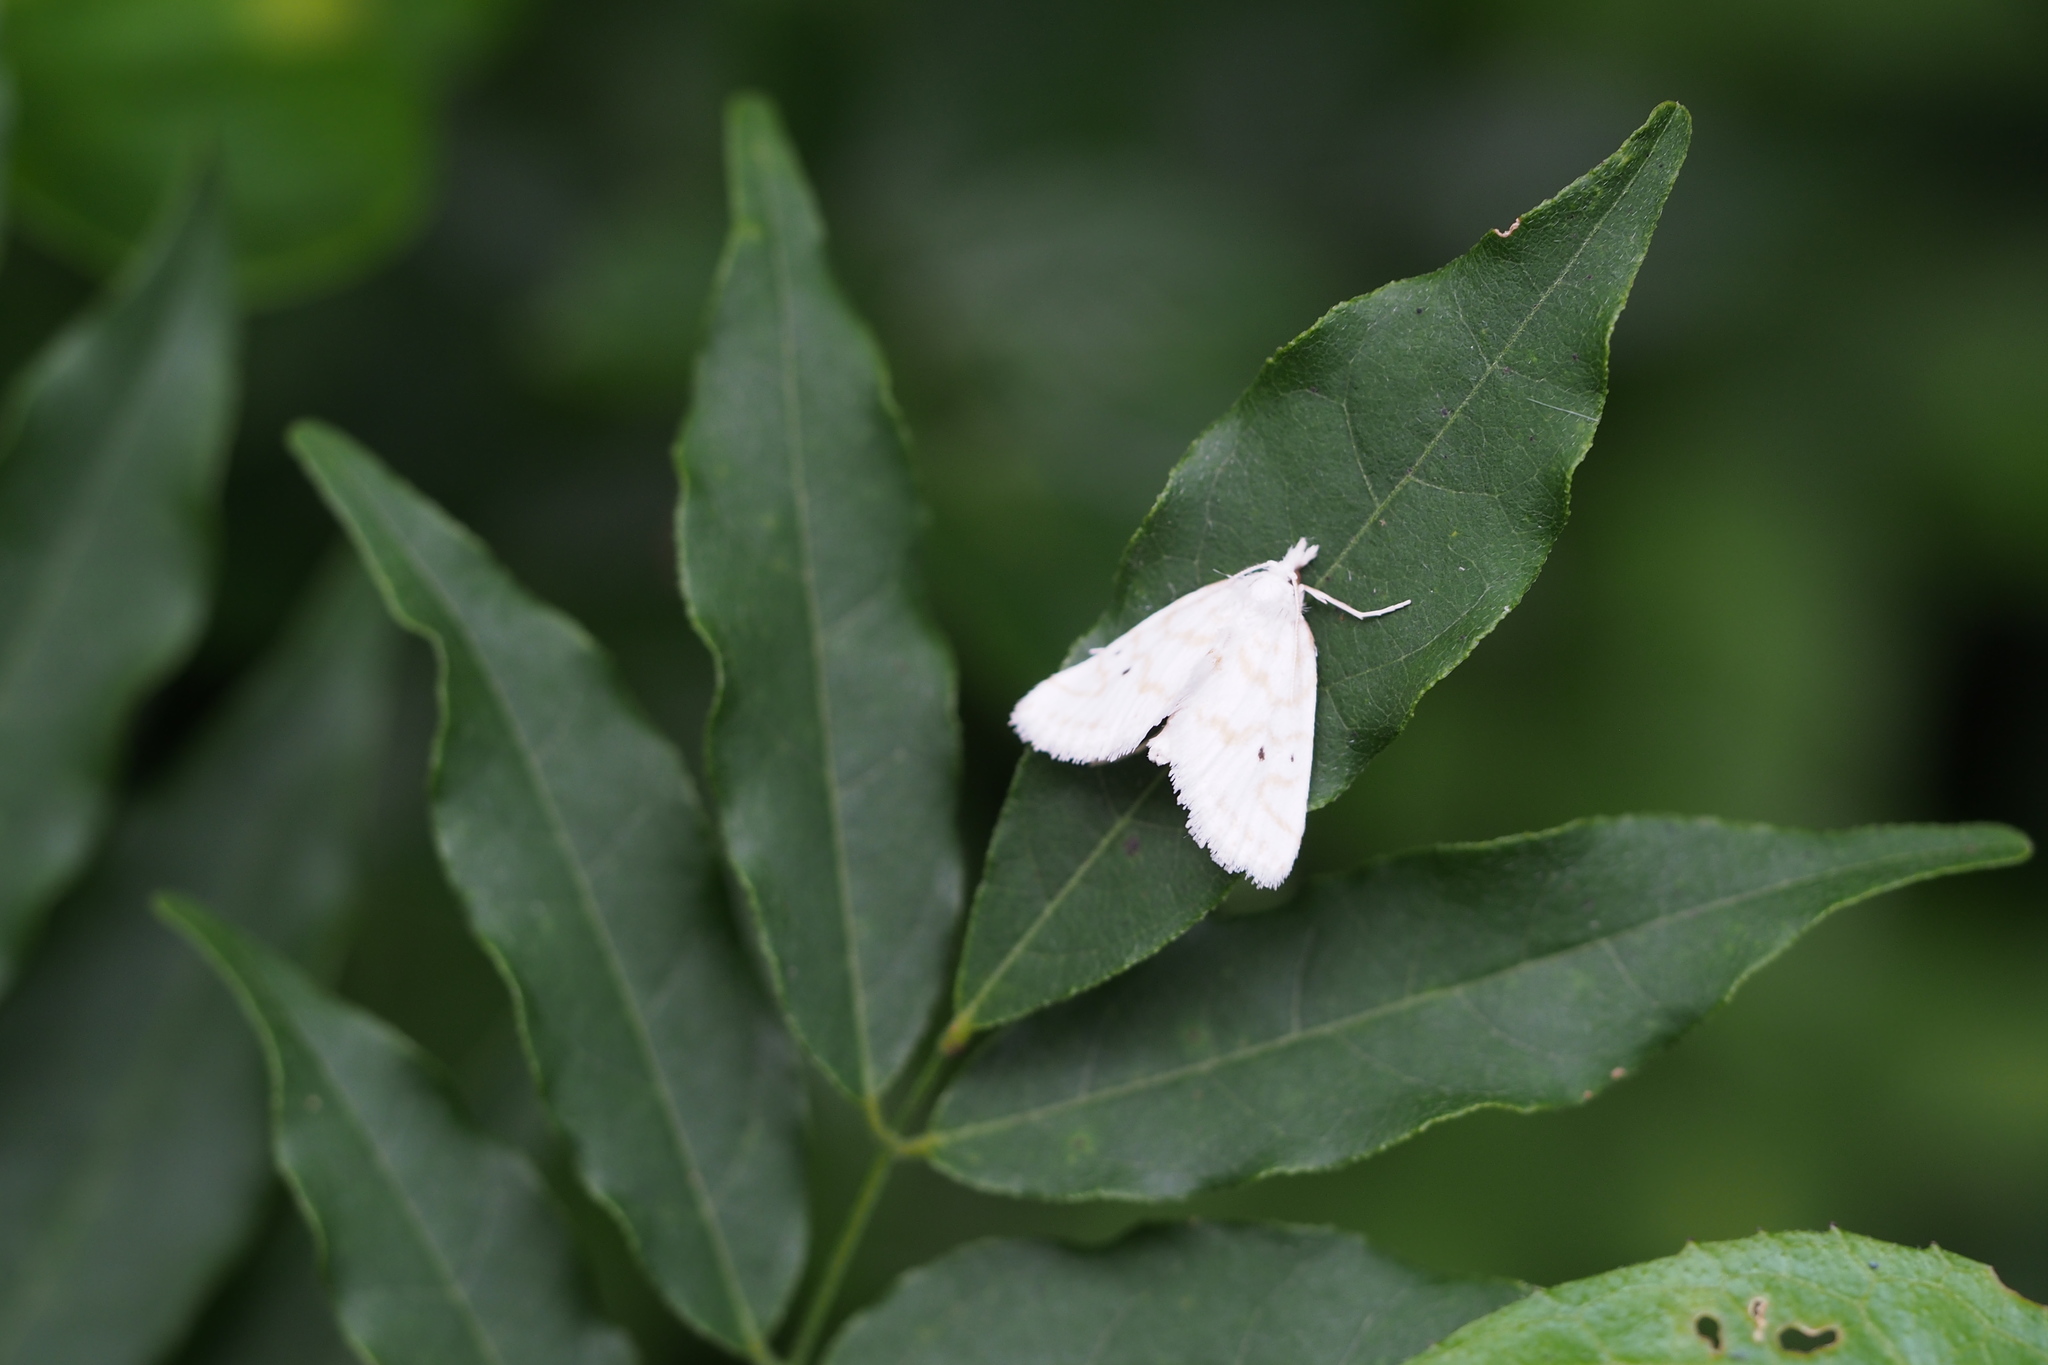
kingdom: Animalia
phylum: Arthropoda
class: Insecta
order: Lepidoptera
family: Crambidae
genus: Patissa
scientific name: Patissa fulvosparsa
